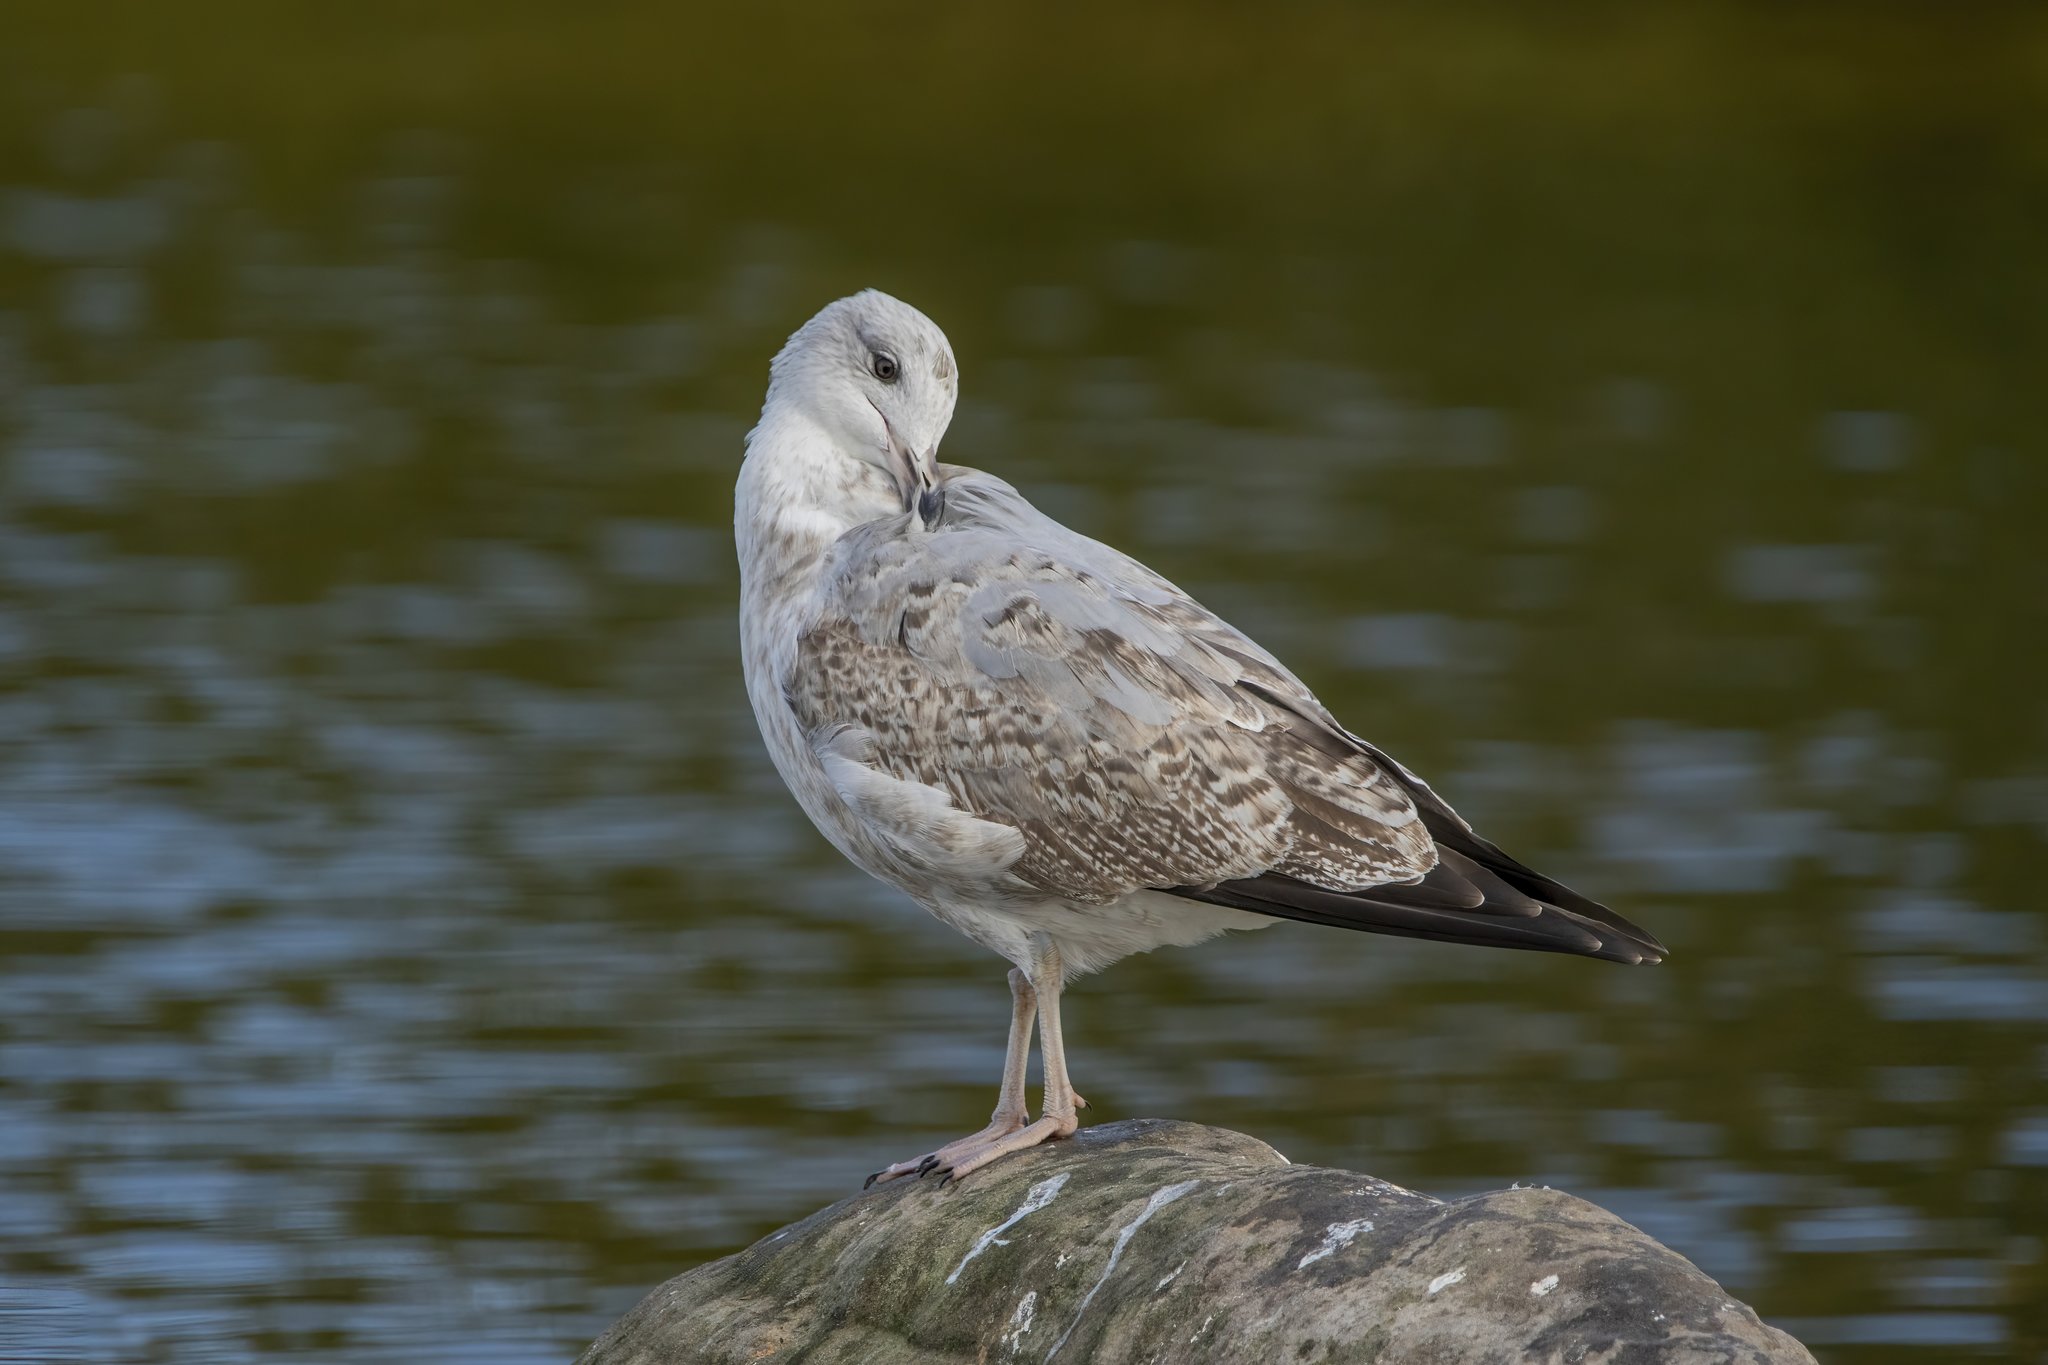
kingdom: Animalia
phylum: Chordata
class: Aves
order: Charadriiformes
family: Laridae
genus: Larus
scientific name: Larus argentatus
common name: Herring gull
